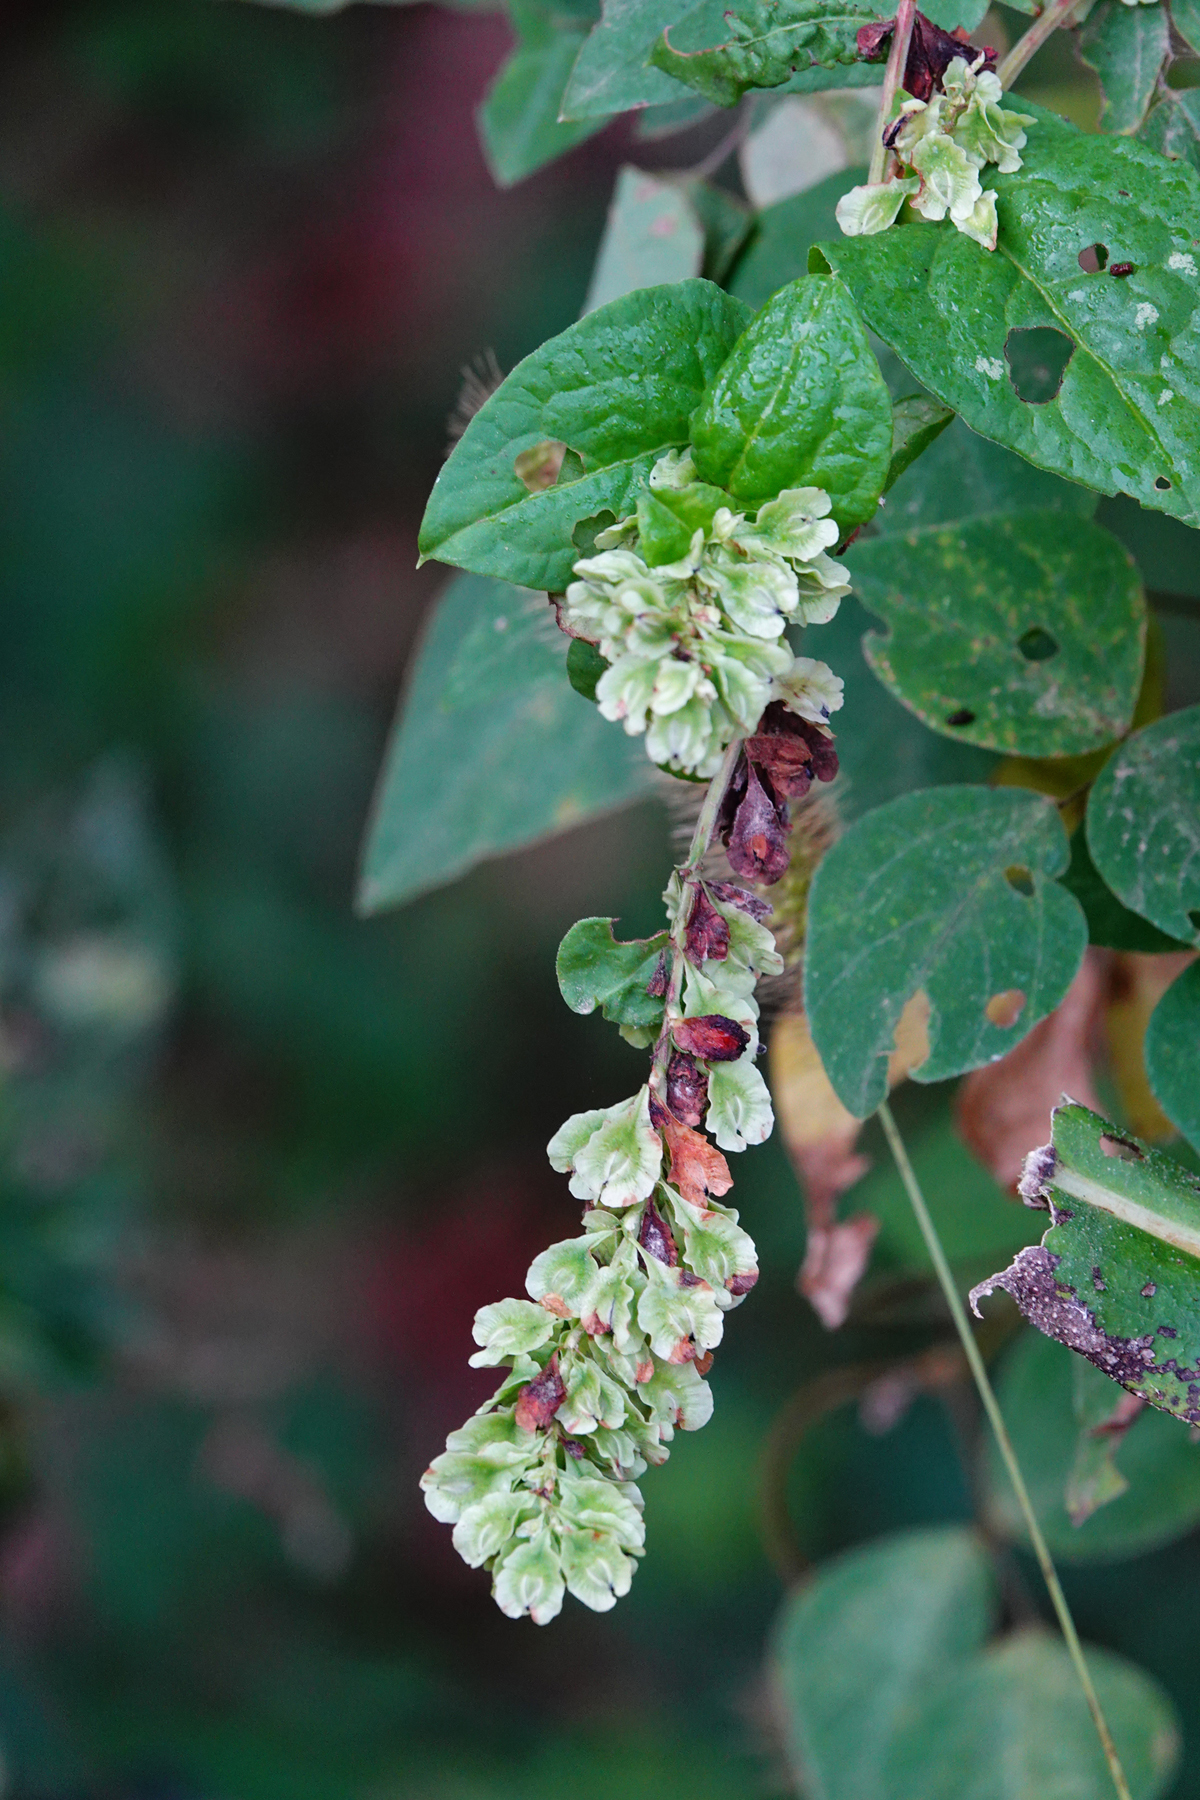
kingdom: Plantae
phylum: Tracheophyta
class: Magnoliopsida
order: Caryophyllales
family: Polygonaceae
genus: Fallopia
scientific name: Fallopia scandens
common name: Climbing false buckwheat
